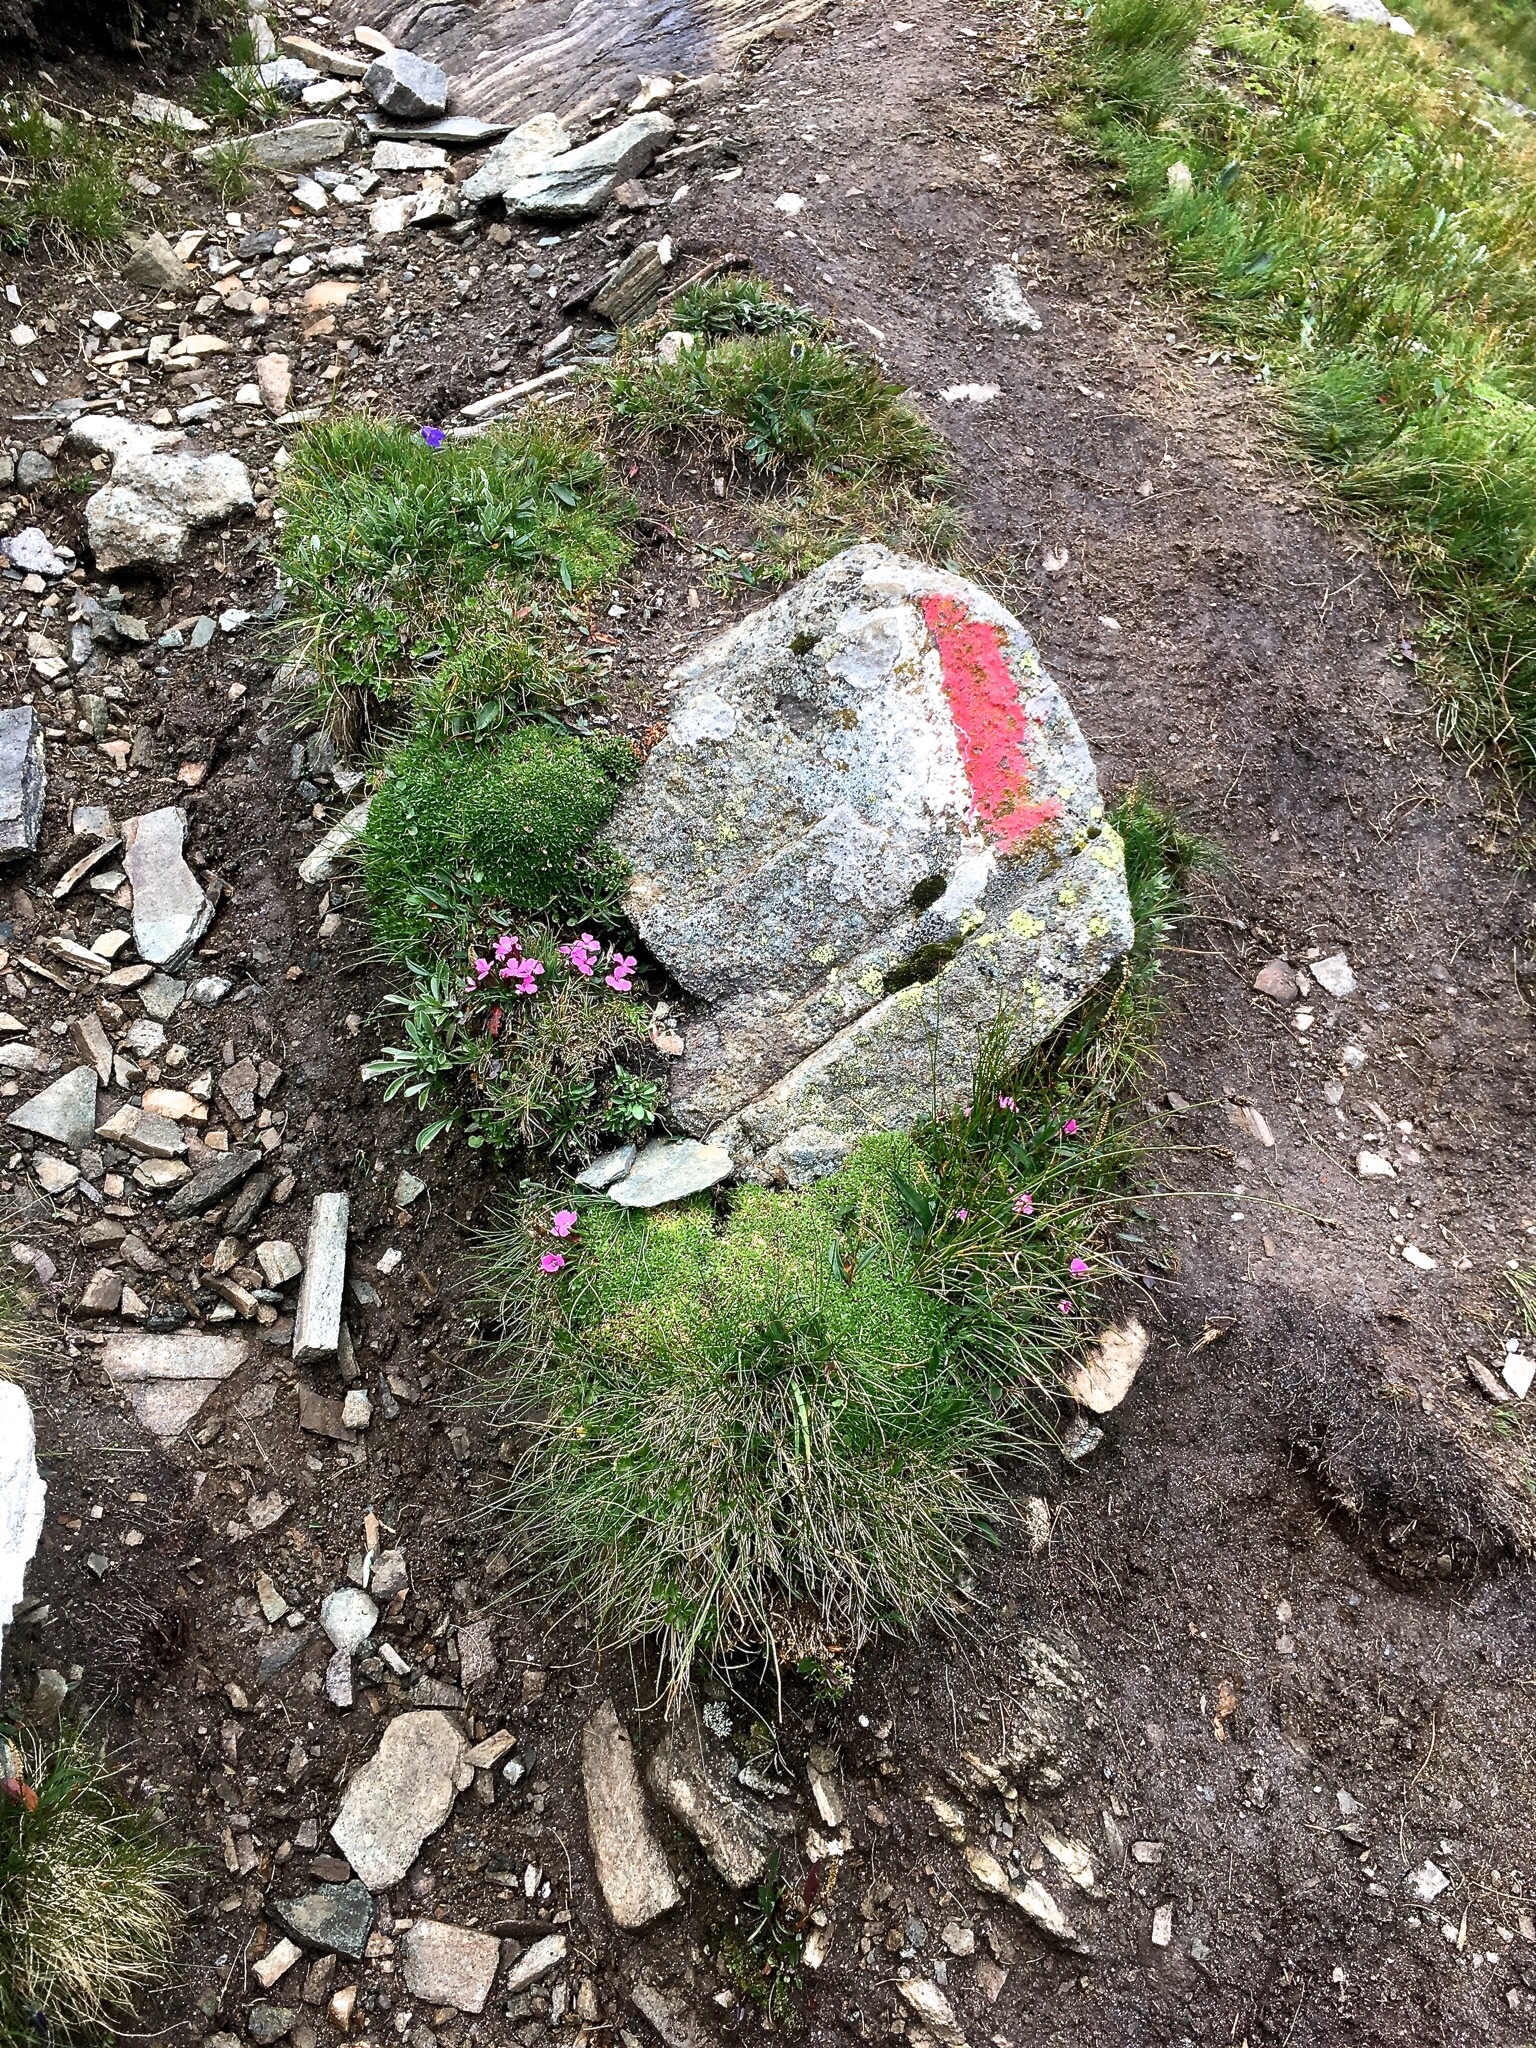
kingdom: Plantae
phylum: Tracheophyta
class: Magnoliopsida
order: Caryophyllales
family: Caryophyllaceae
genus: Dianthus
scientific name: Dianthus glacialis
